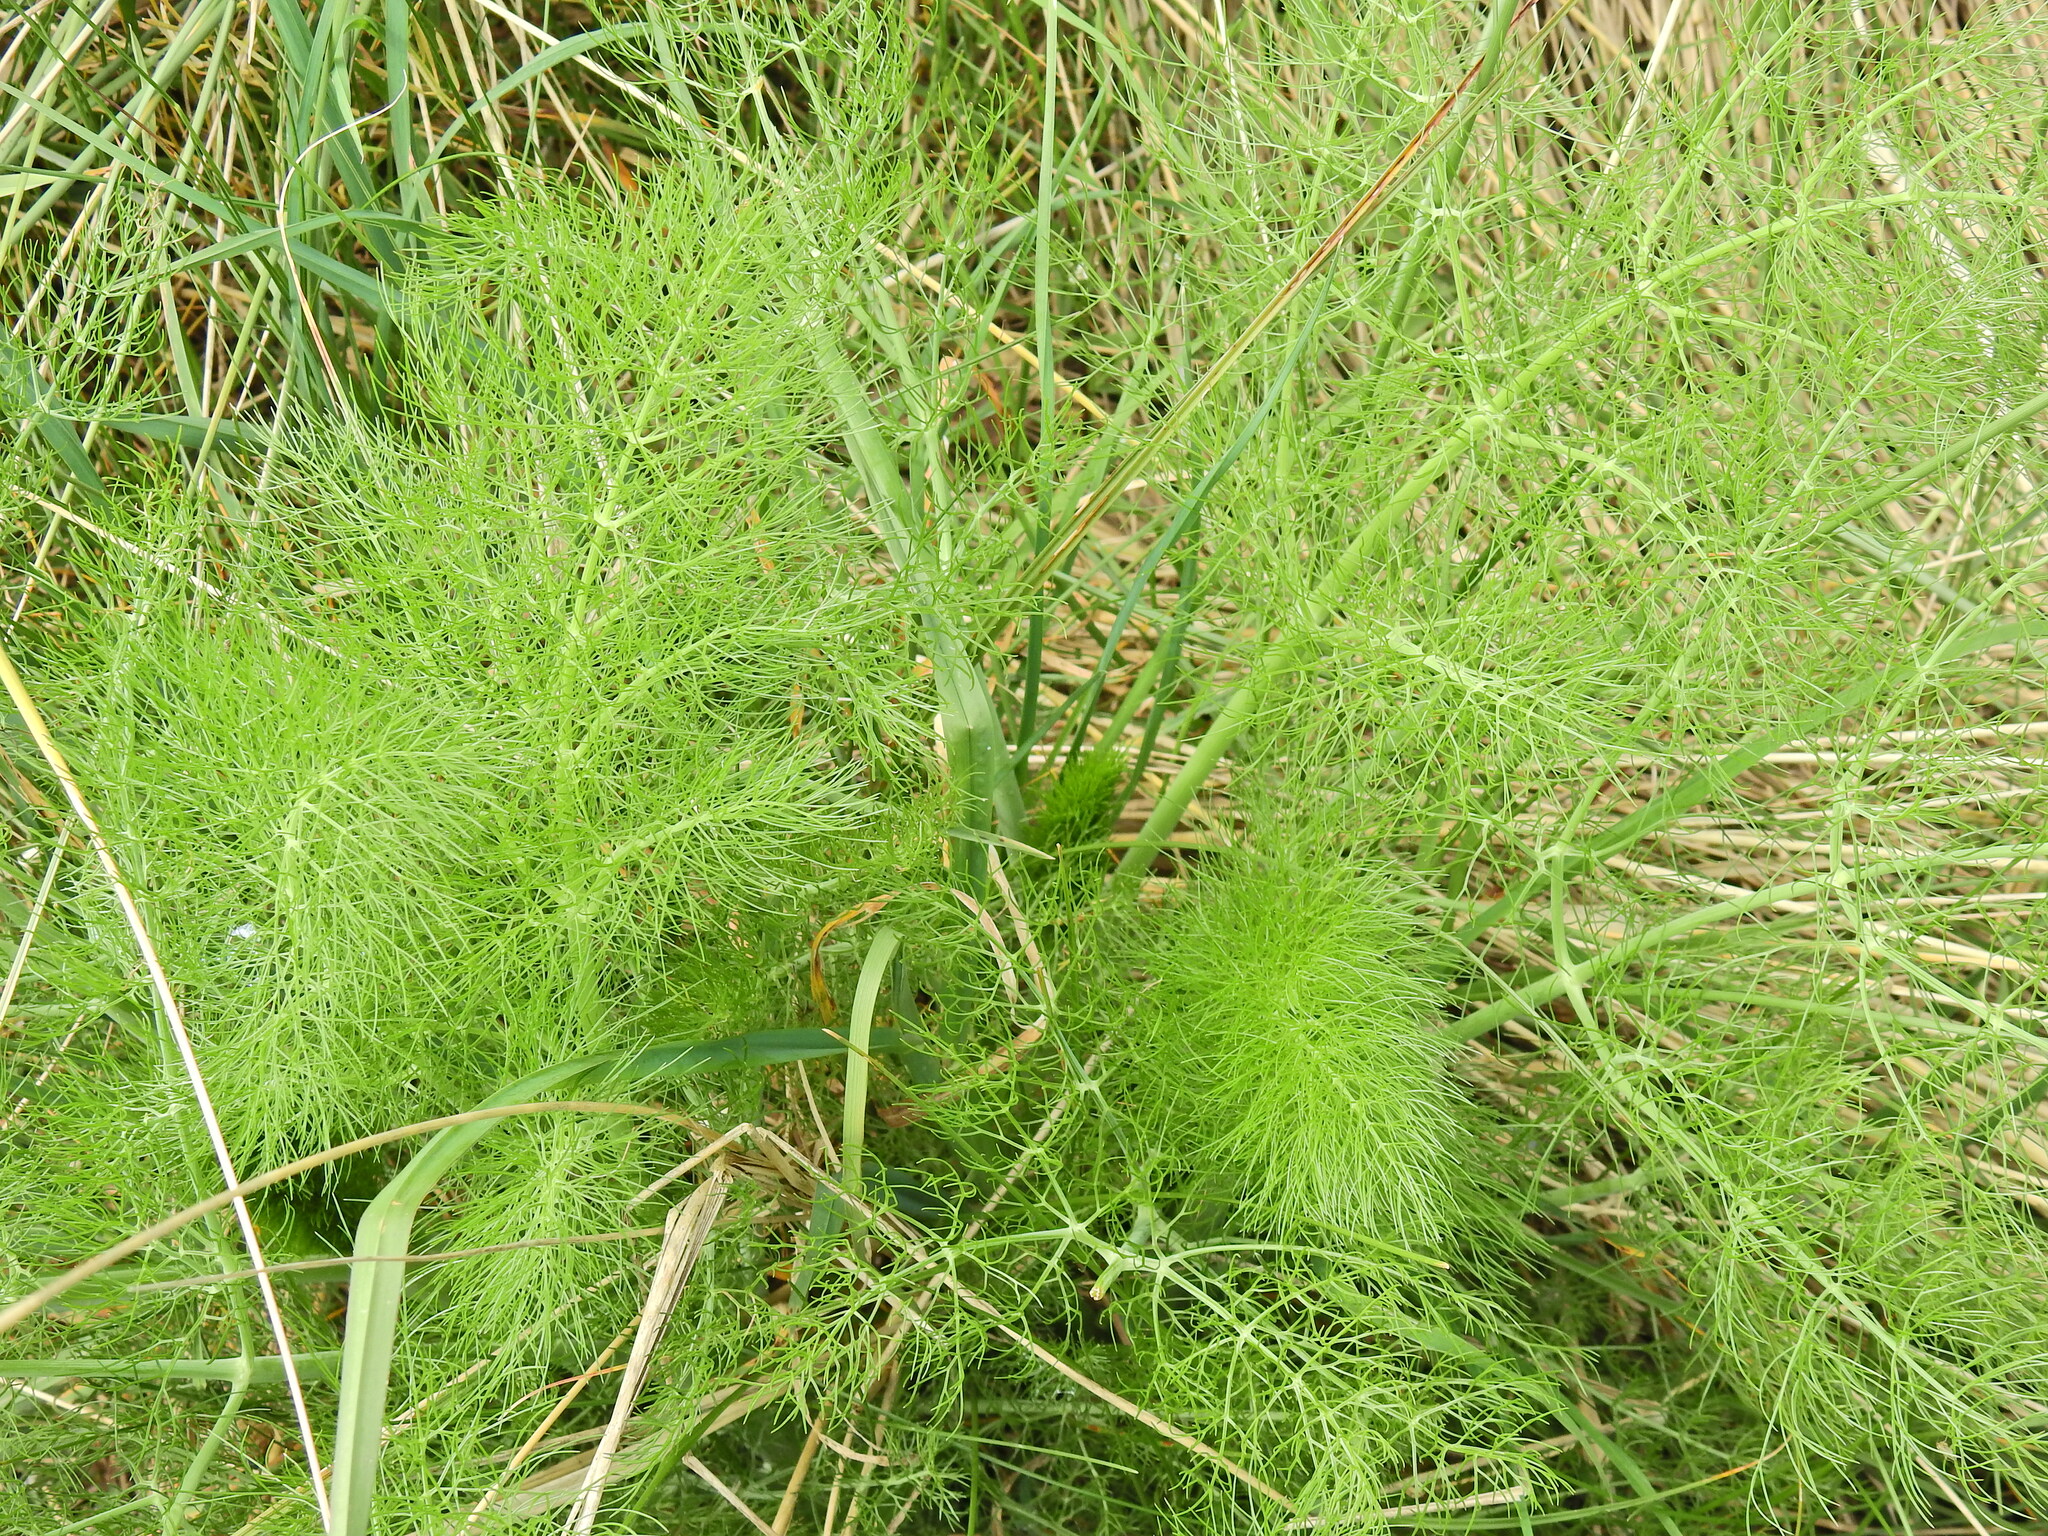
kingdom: Plantae
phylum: Tracheophyta
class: Magnoliopsida
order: Apiales
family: Apiaceae
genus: Foeniculum
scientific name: Foeniculum vulgare
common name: Fennel
